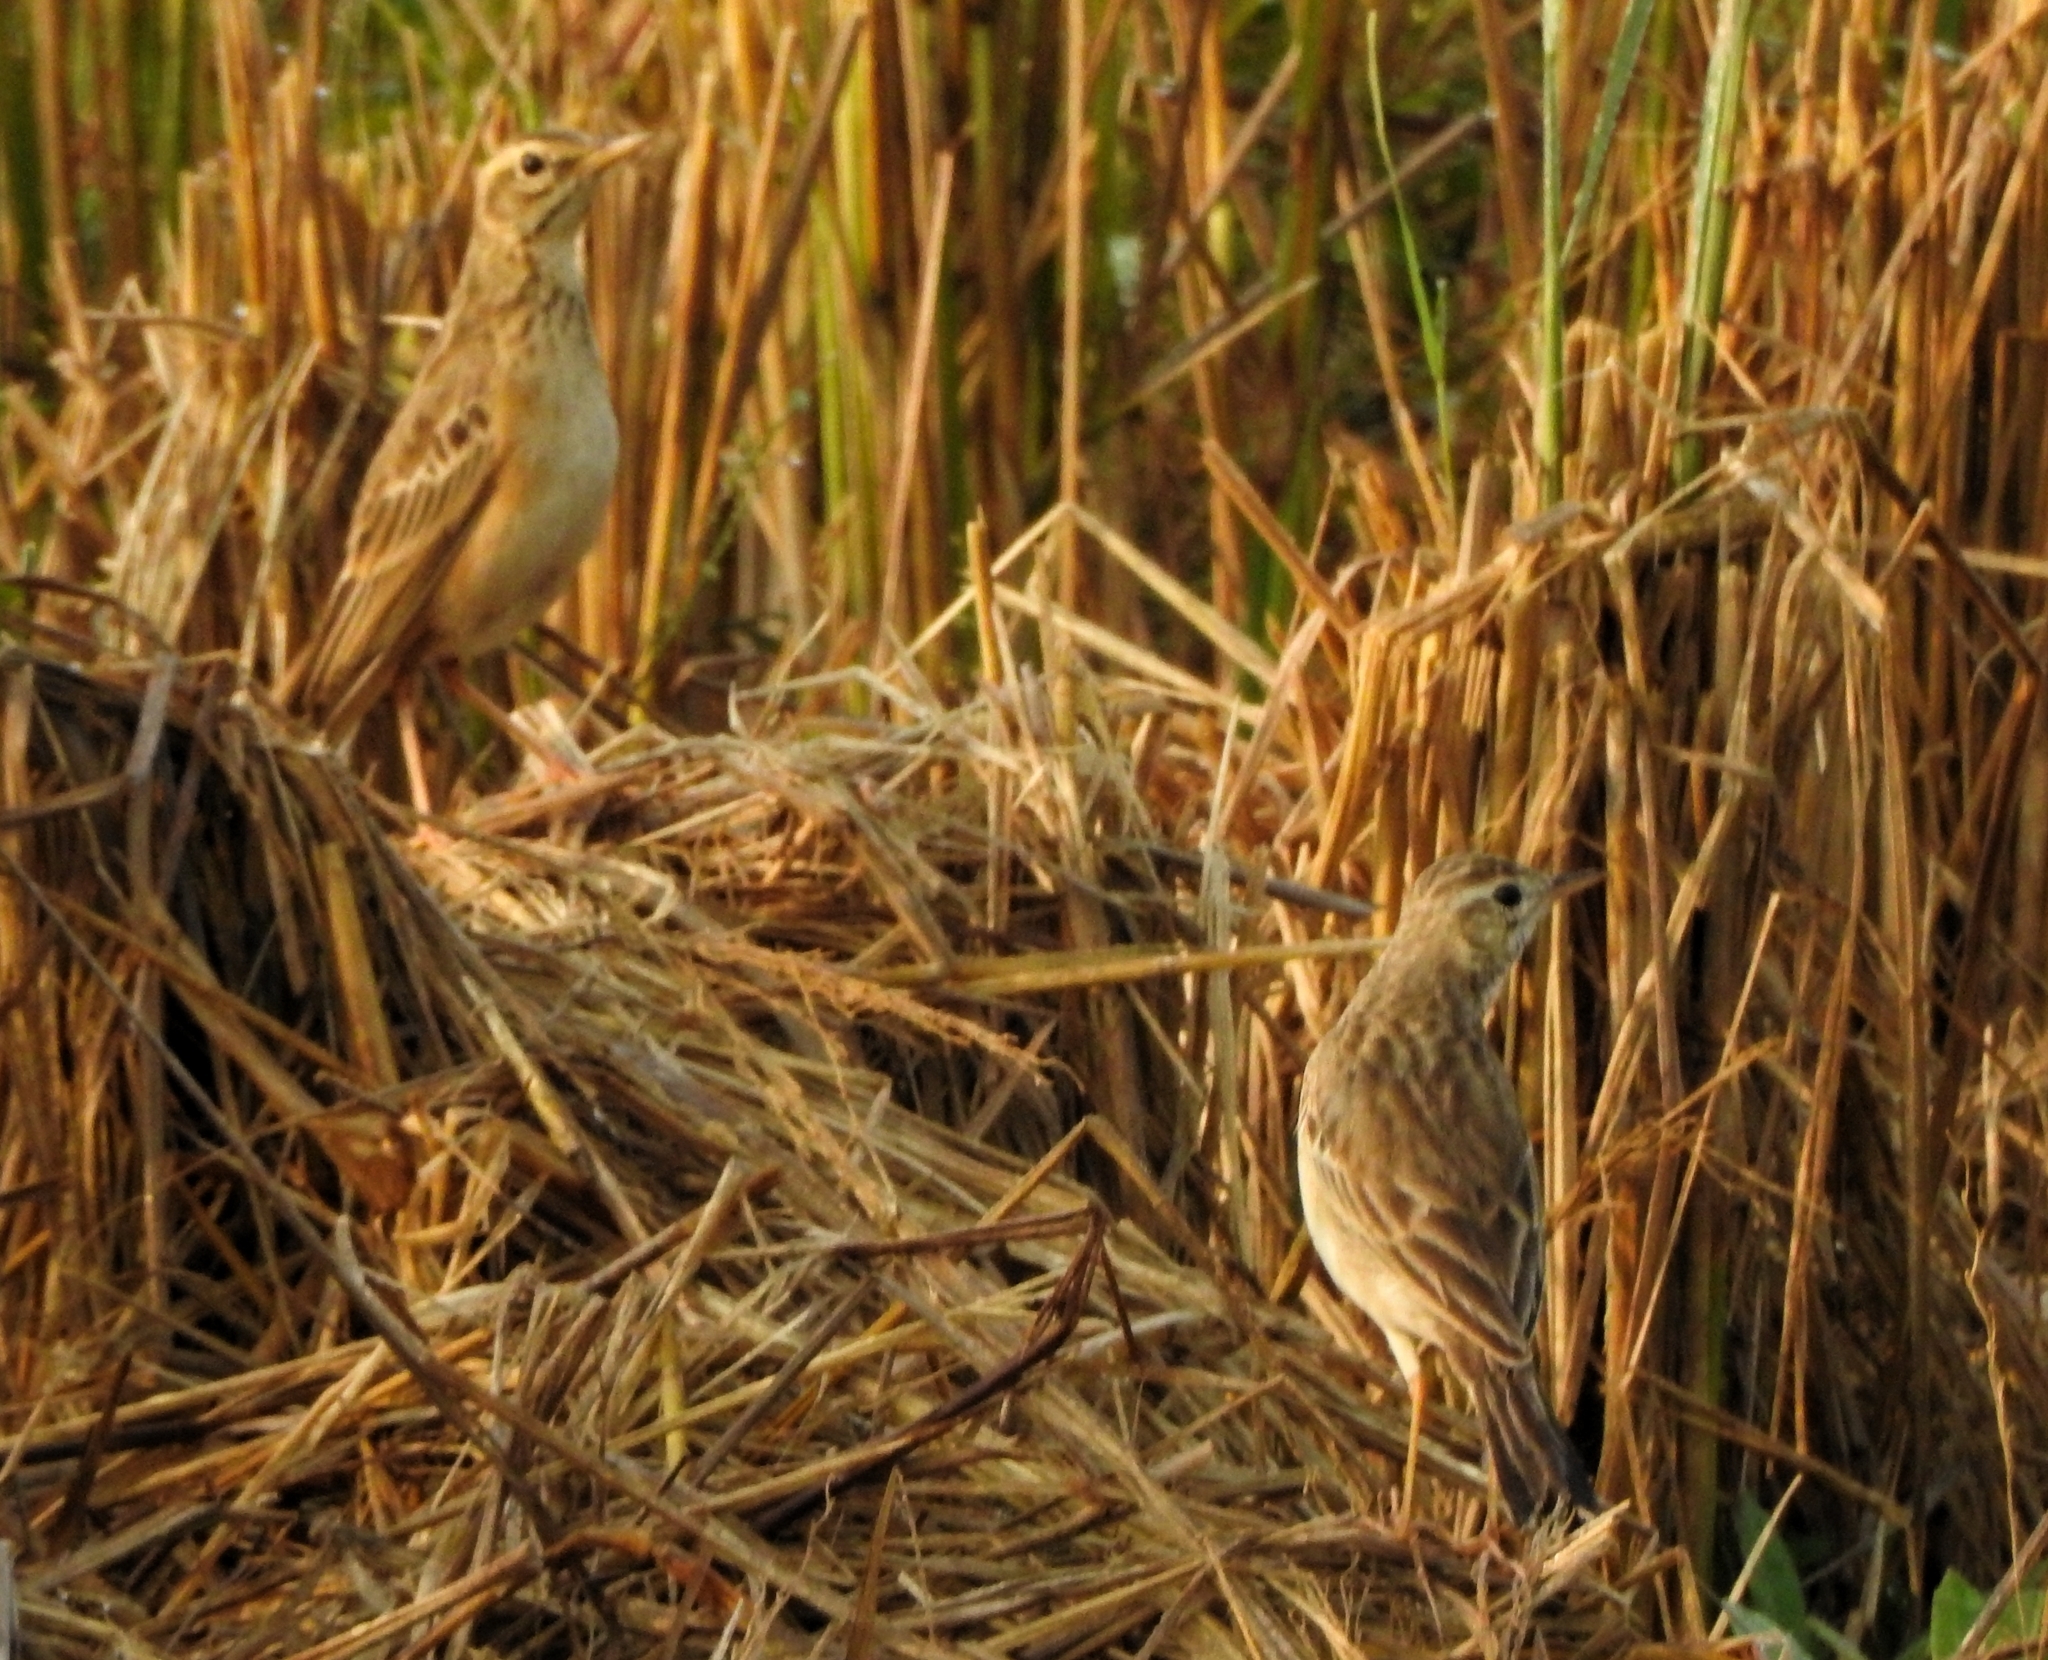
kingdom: Animalia
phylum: Chordata
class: Aves
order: Passeriformes
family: Motacillidae
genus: Anthus
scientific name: Anthus rufulus
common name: Paddyfield pipit
